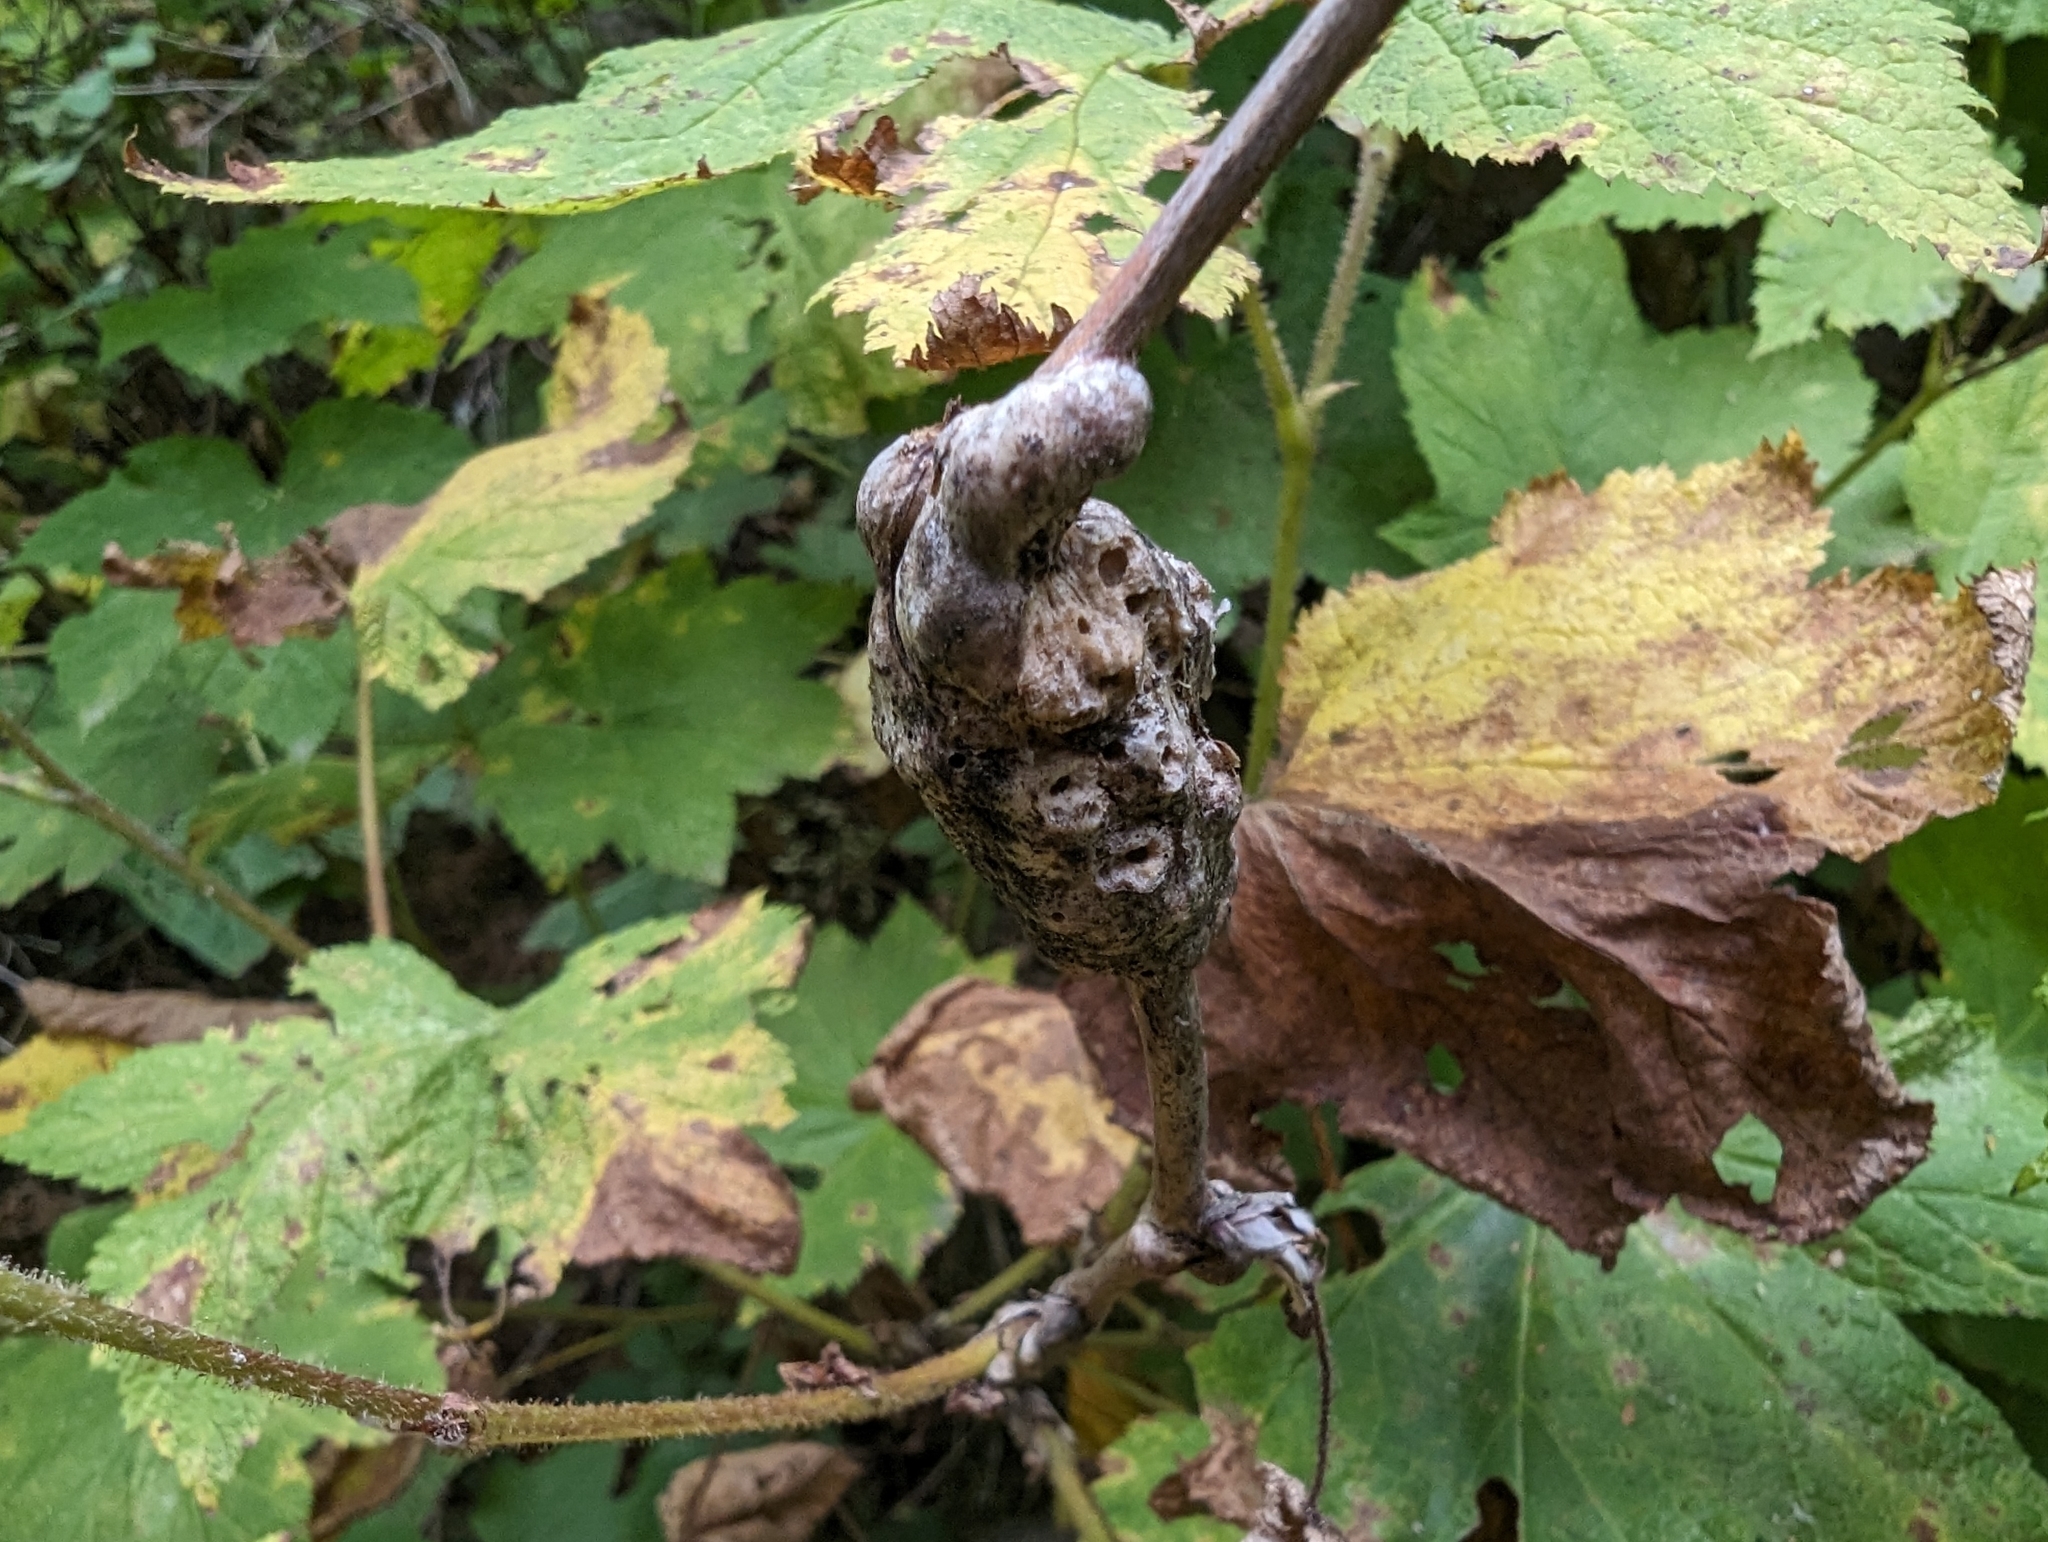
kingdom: Animalia
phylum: Arthropoda
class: Insecta
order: Hymenoptera
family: Cynipidae
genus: Diastrophus
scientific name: Diastrophus
